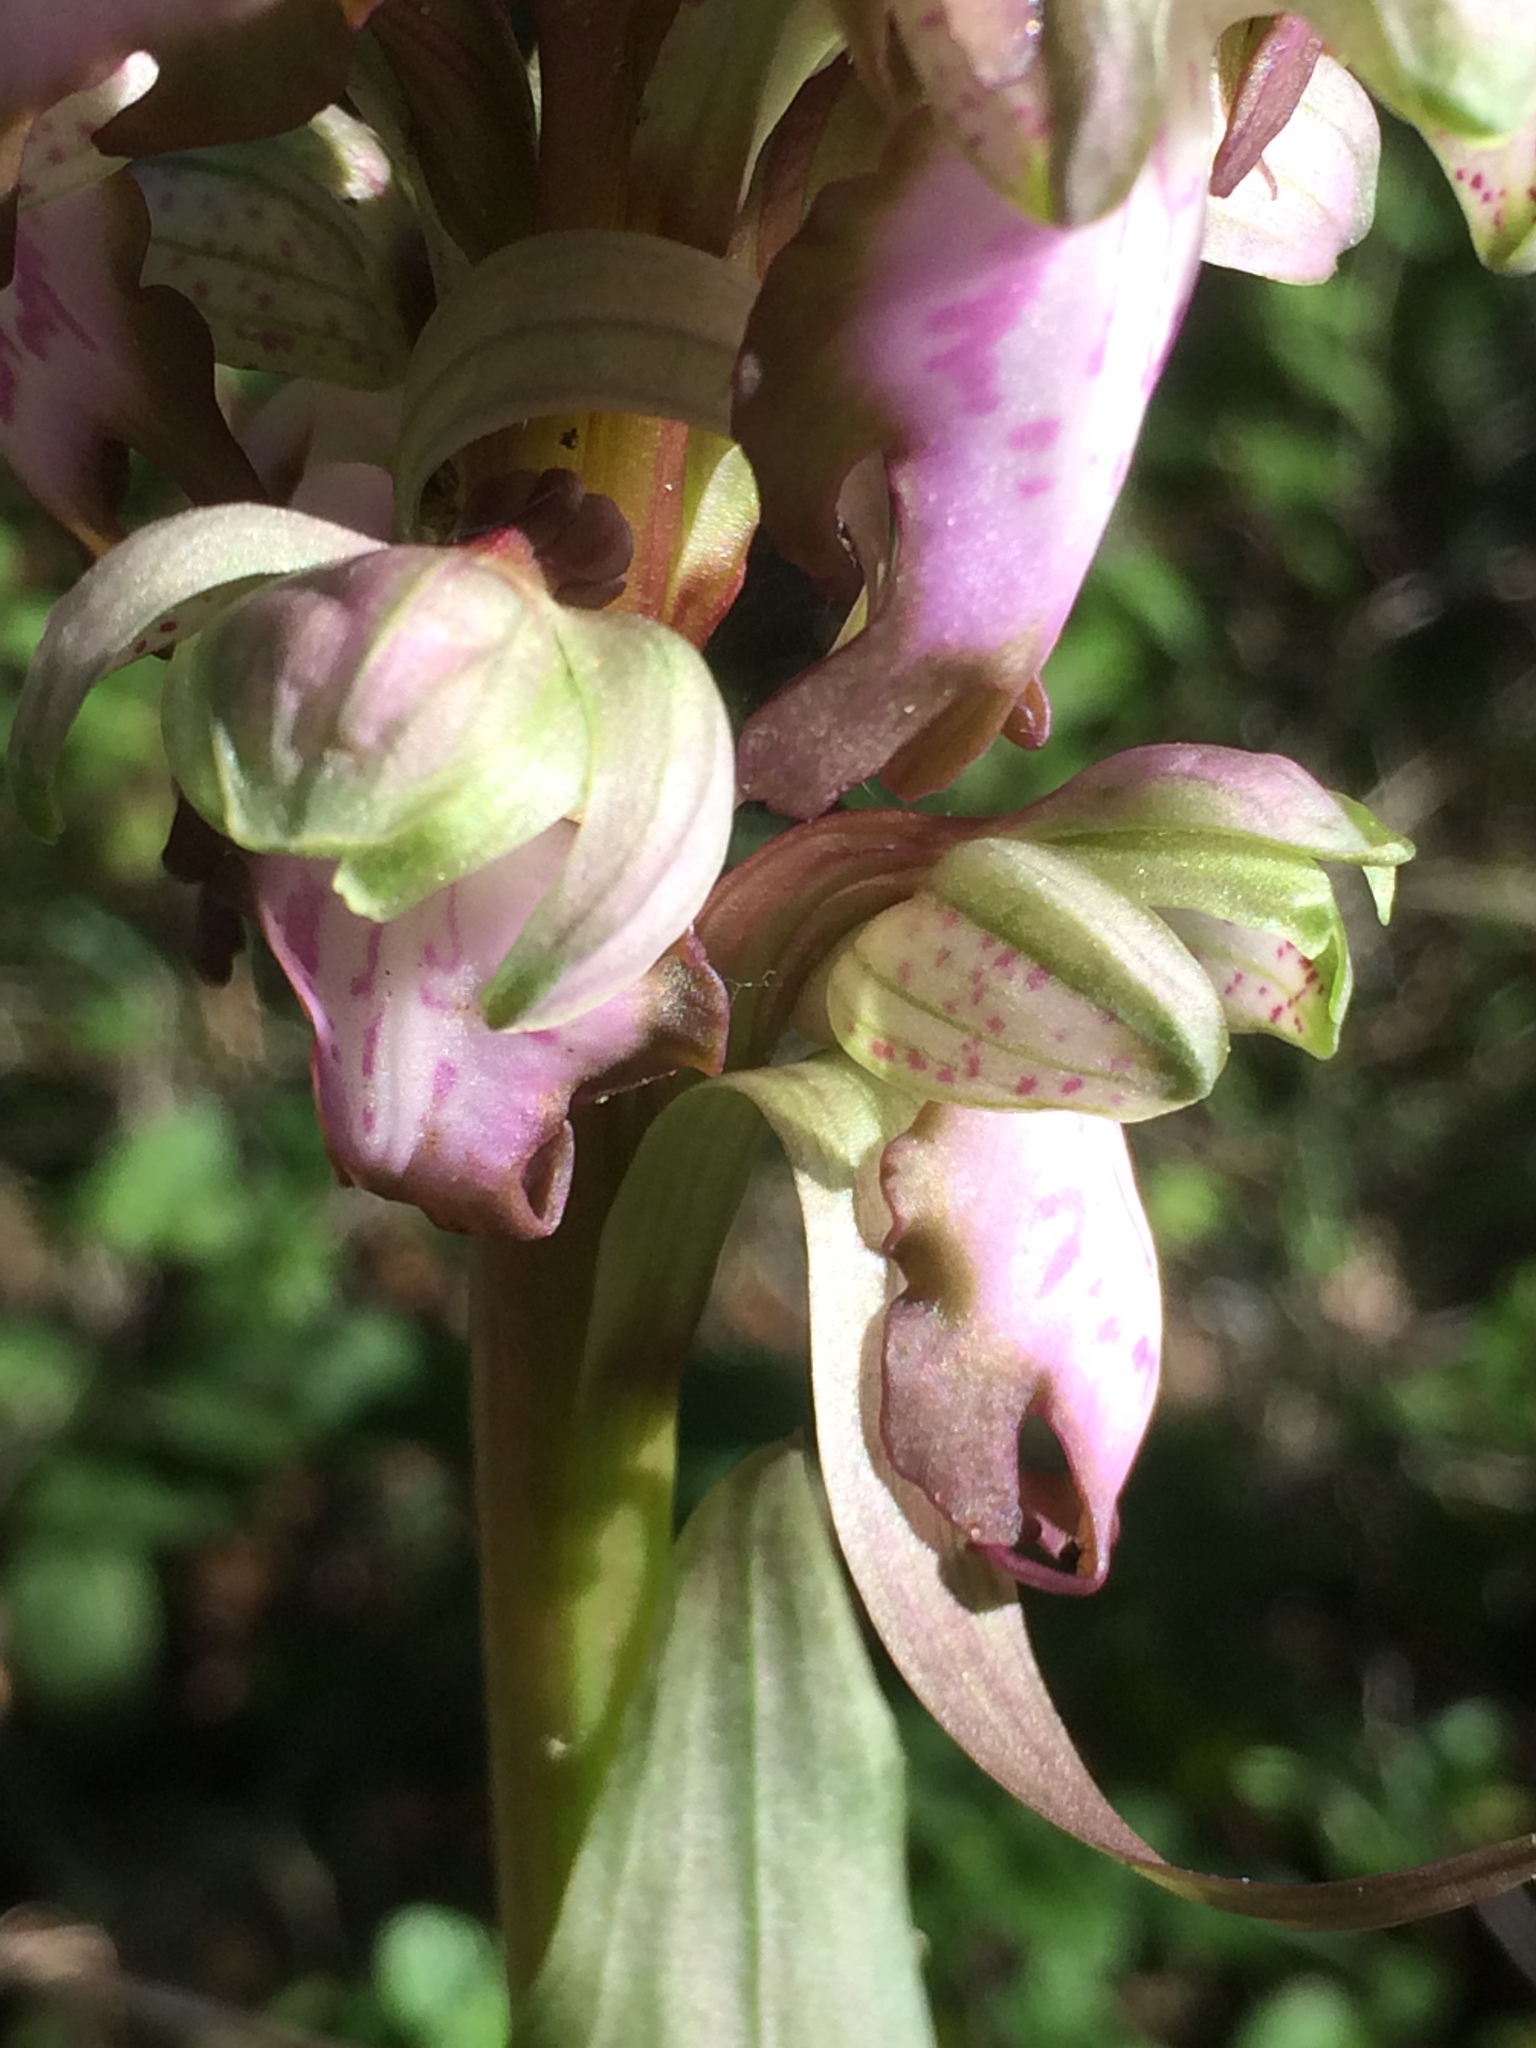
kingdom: Plantae
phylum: Tracheophyta
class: Liliopsida
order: Asparagales
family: Orchidaceae
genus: Himantoglossum
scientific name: Himantoglossum robertianum
